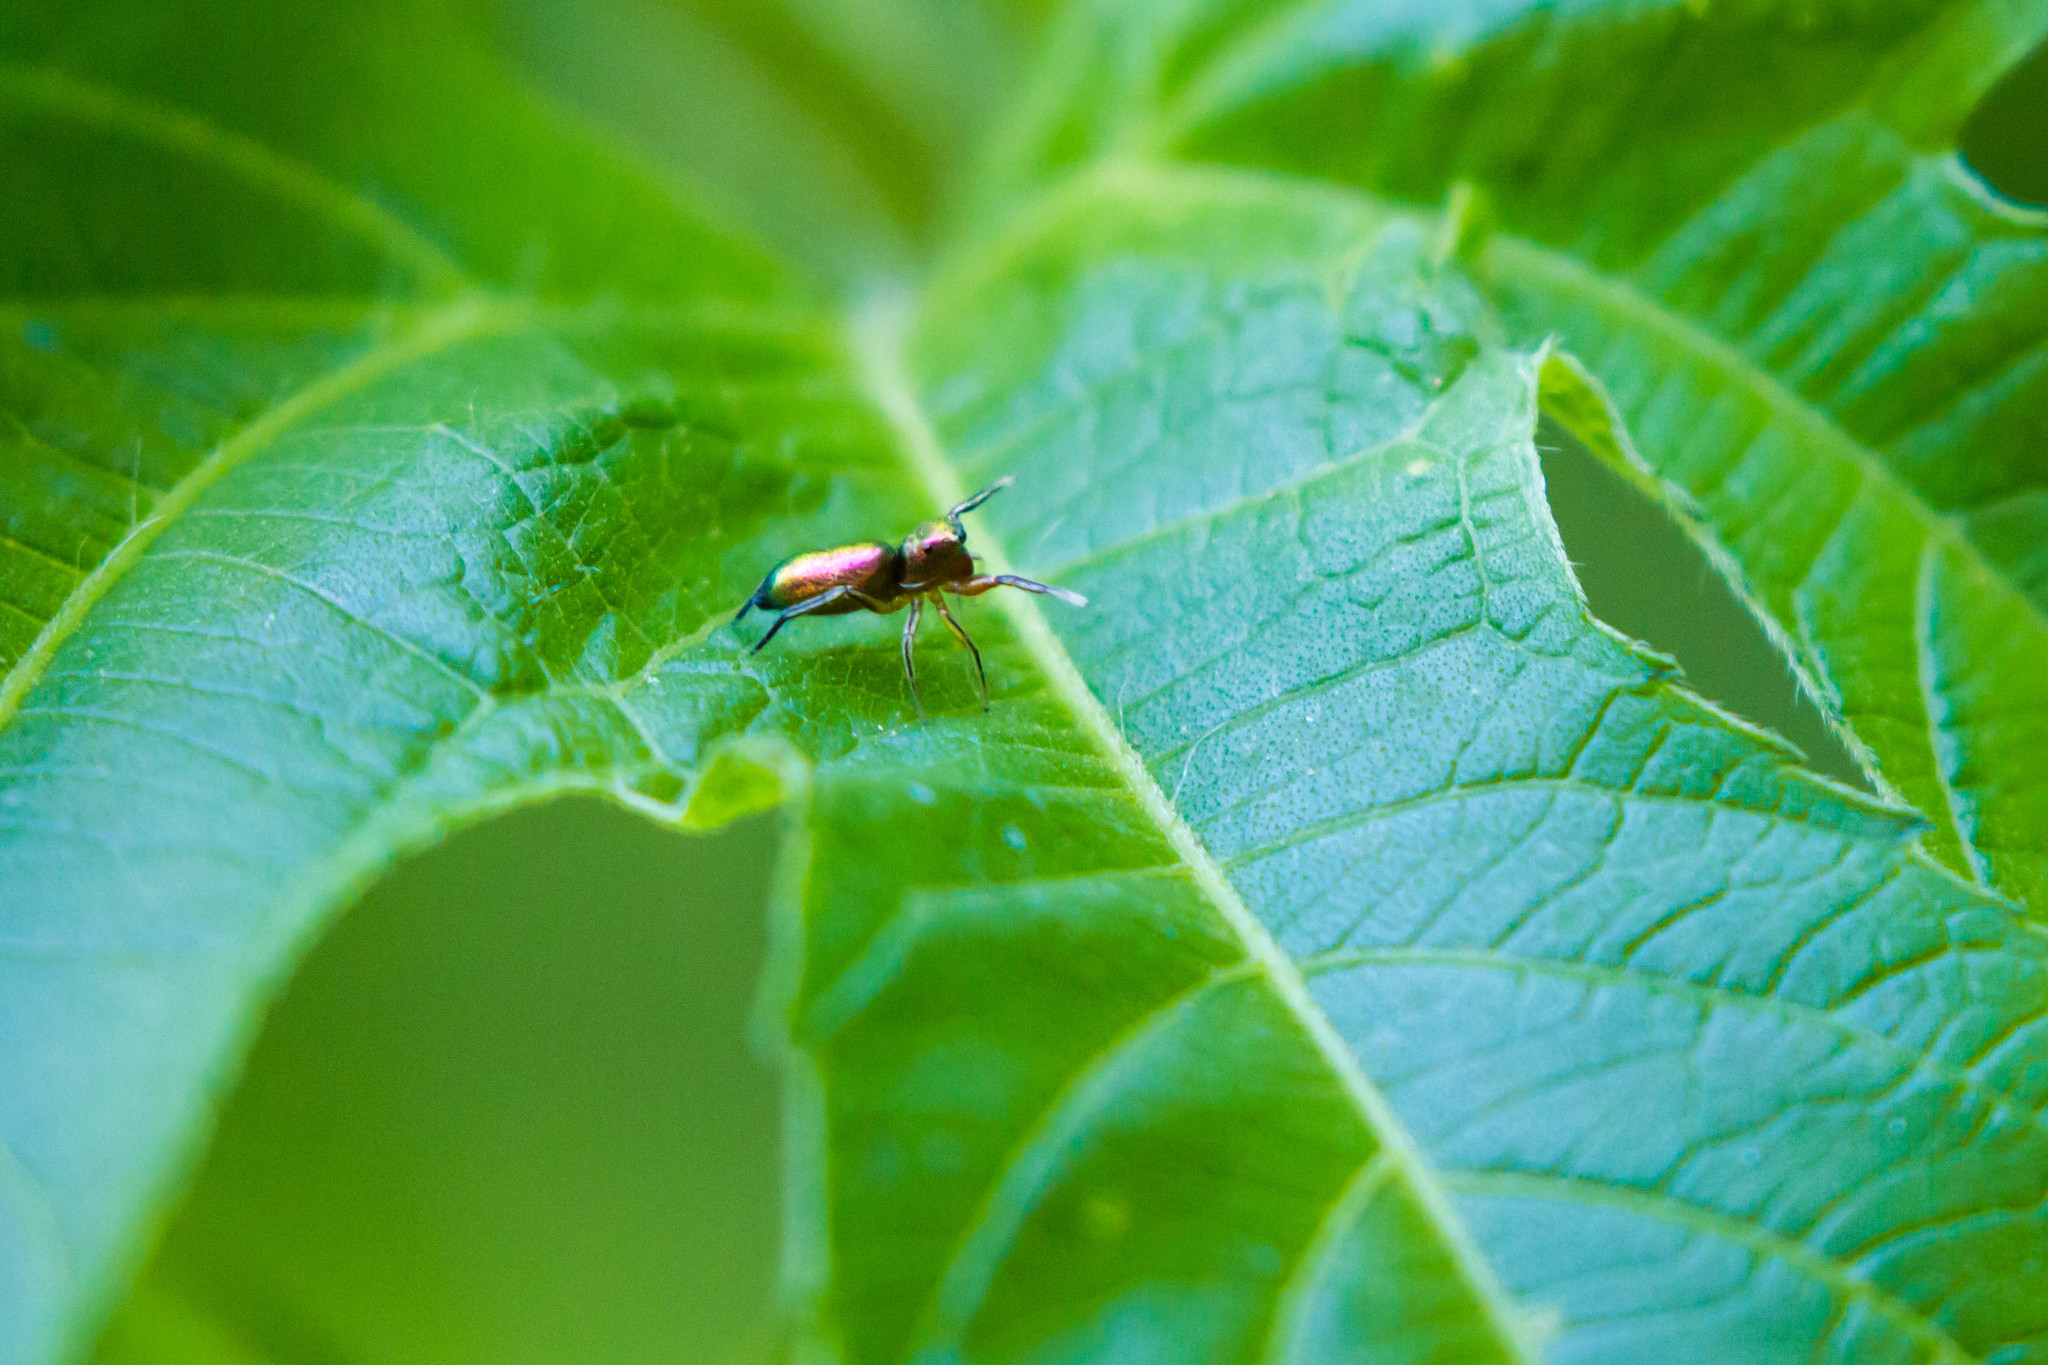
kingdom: Animalia
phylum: Arthropoda
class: Arachnida
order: Araneae
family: Salticidae
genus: Tutelina
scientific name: Tutelina similis
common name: Thick-spined jumping spider
